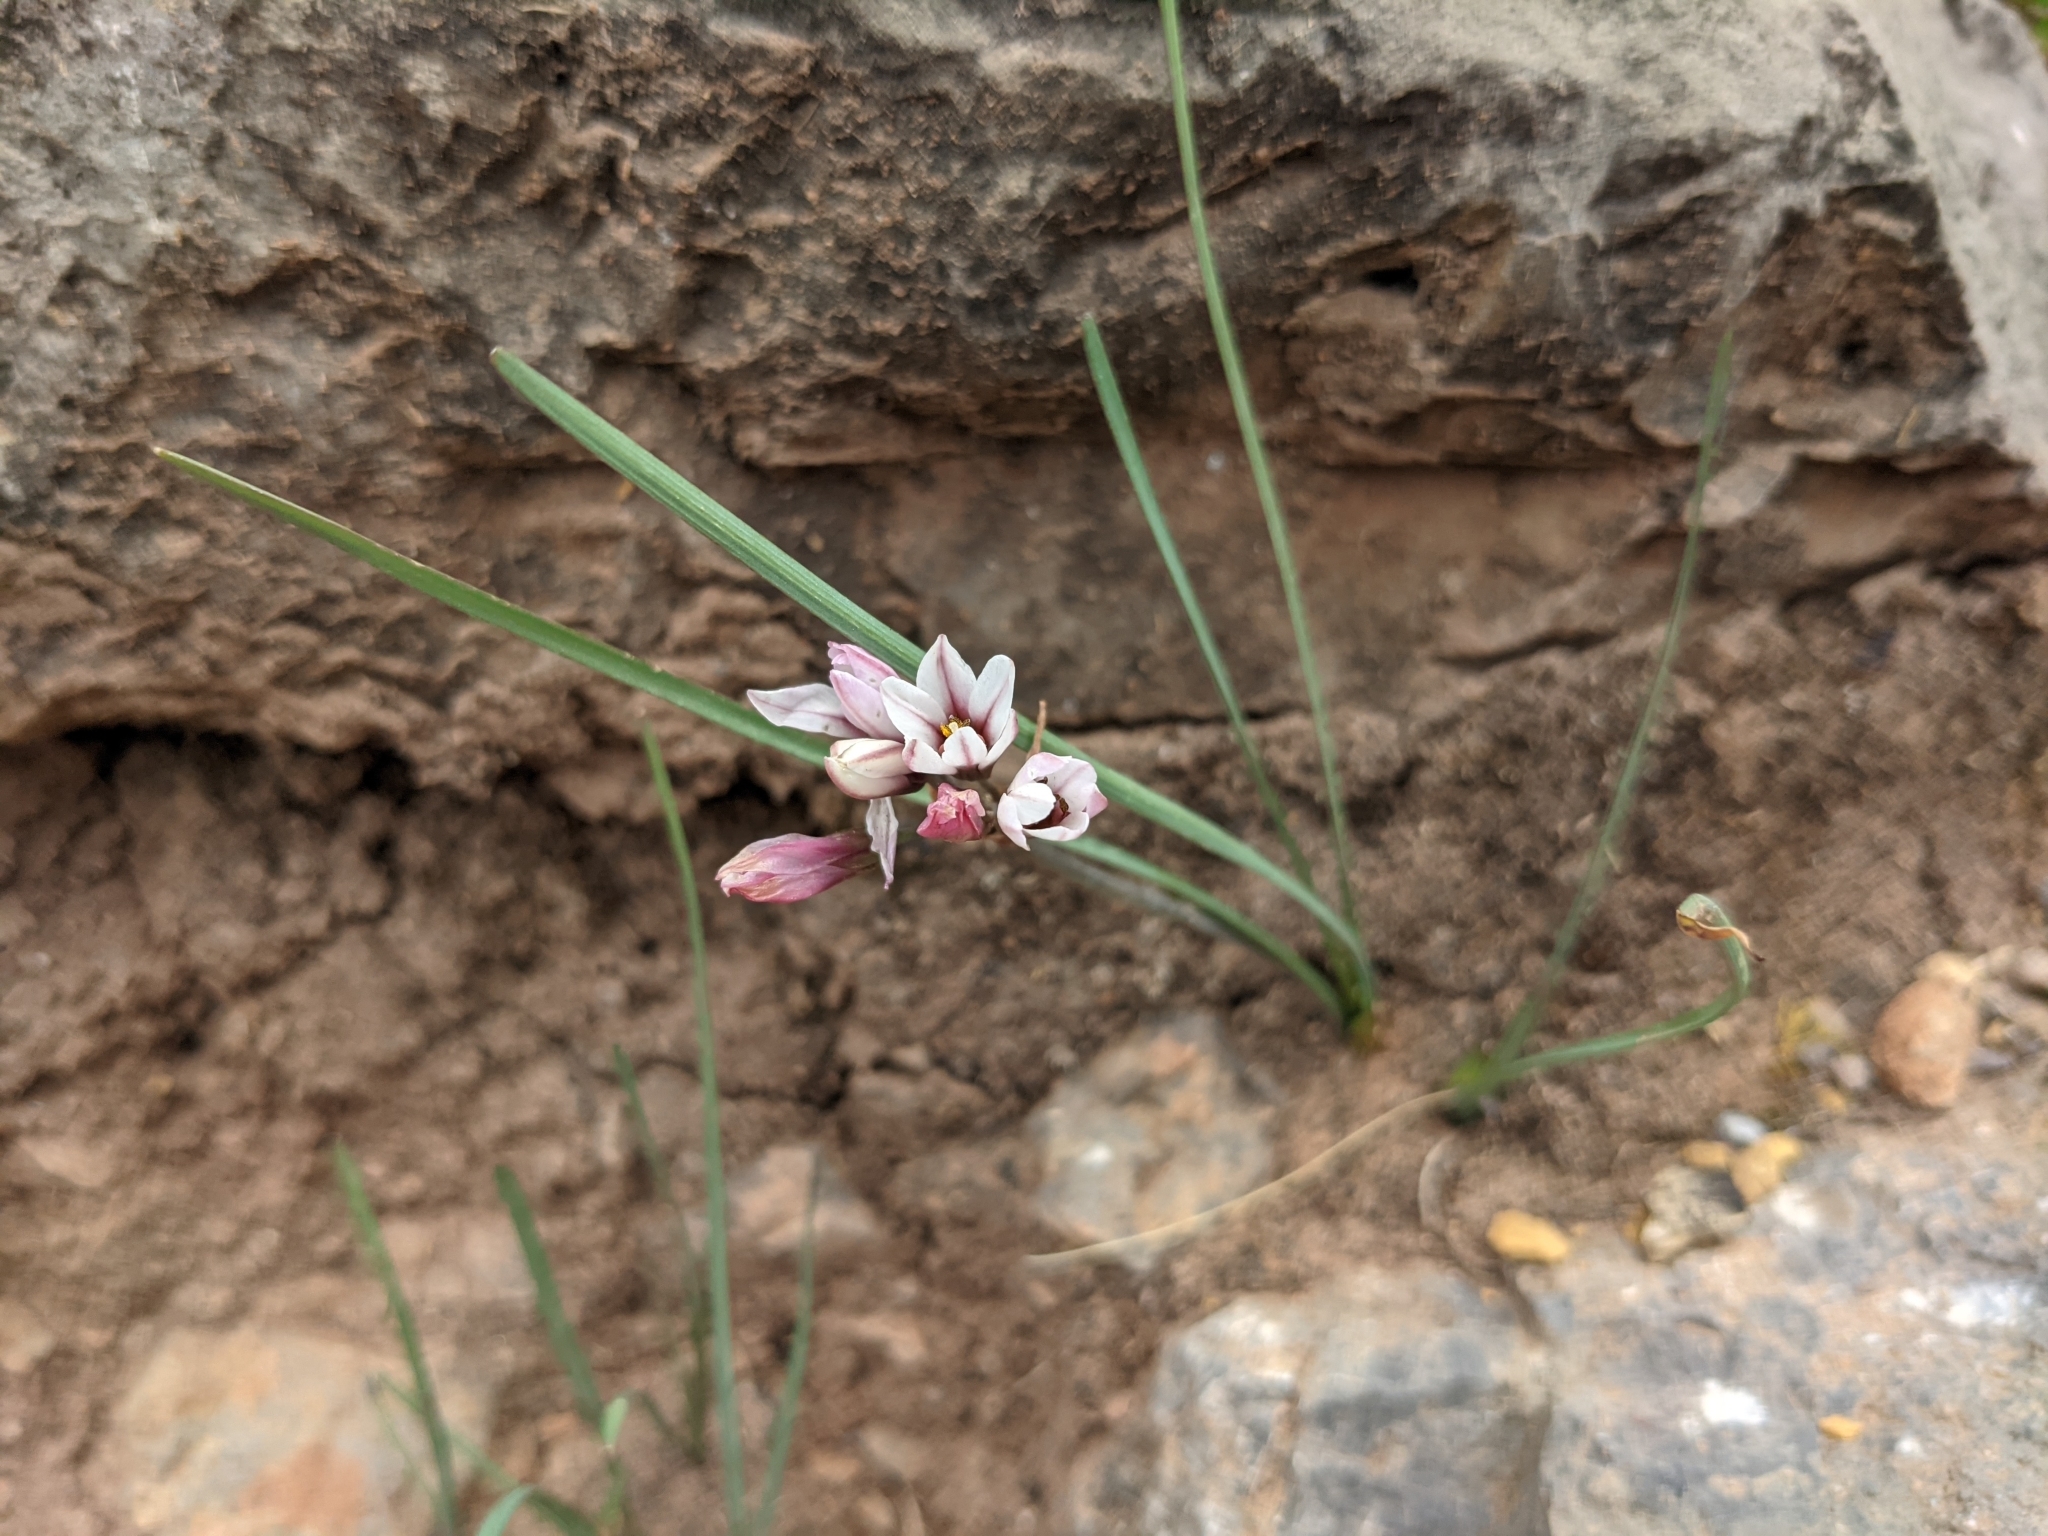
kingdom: Plantae
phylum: Tracheophyta
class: Liliopsida
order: Asparagales
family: Amaryllidaceae
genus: Nothoscordum
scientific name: Nothoscordum andicola
